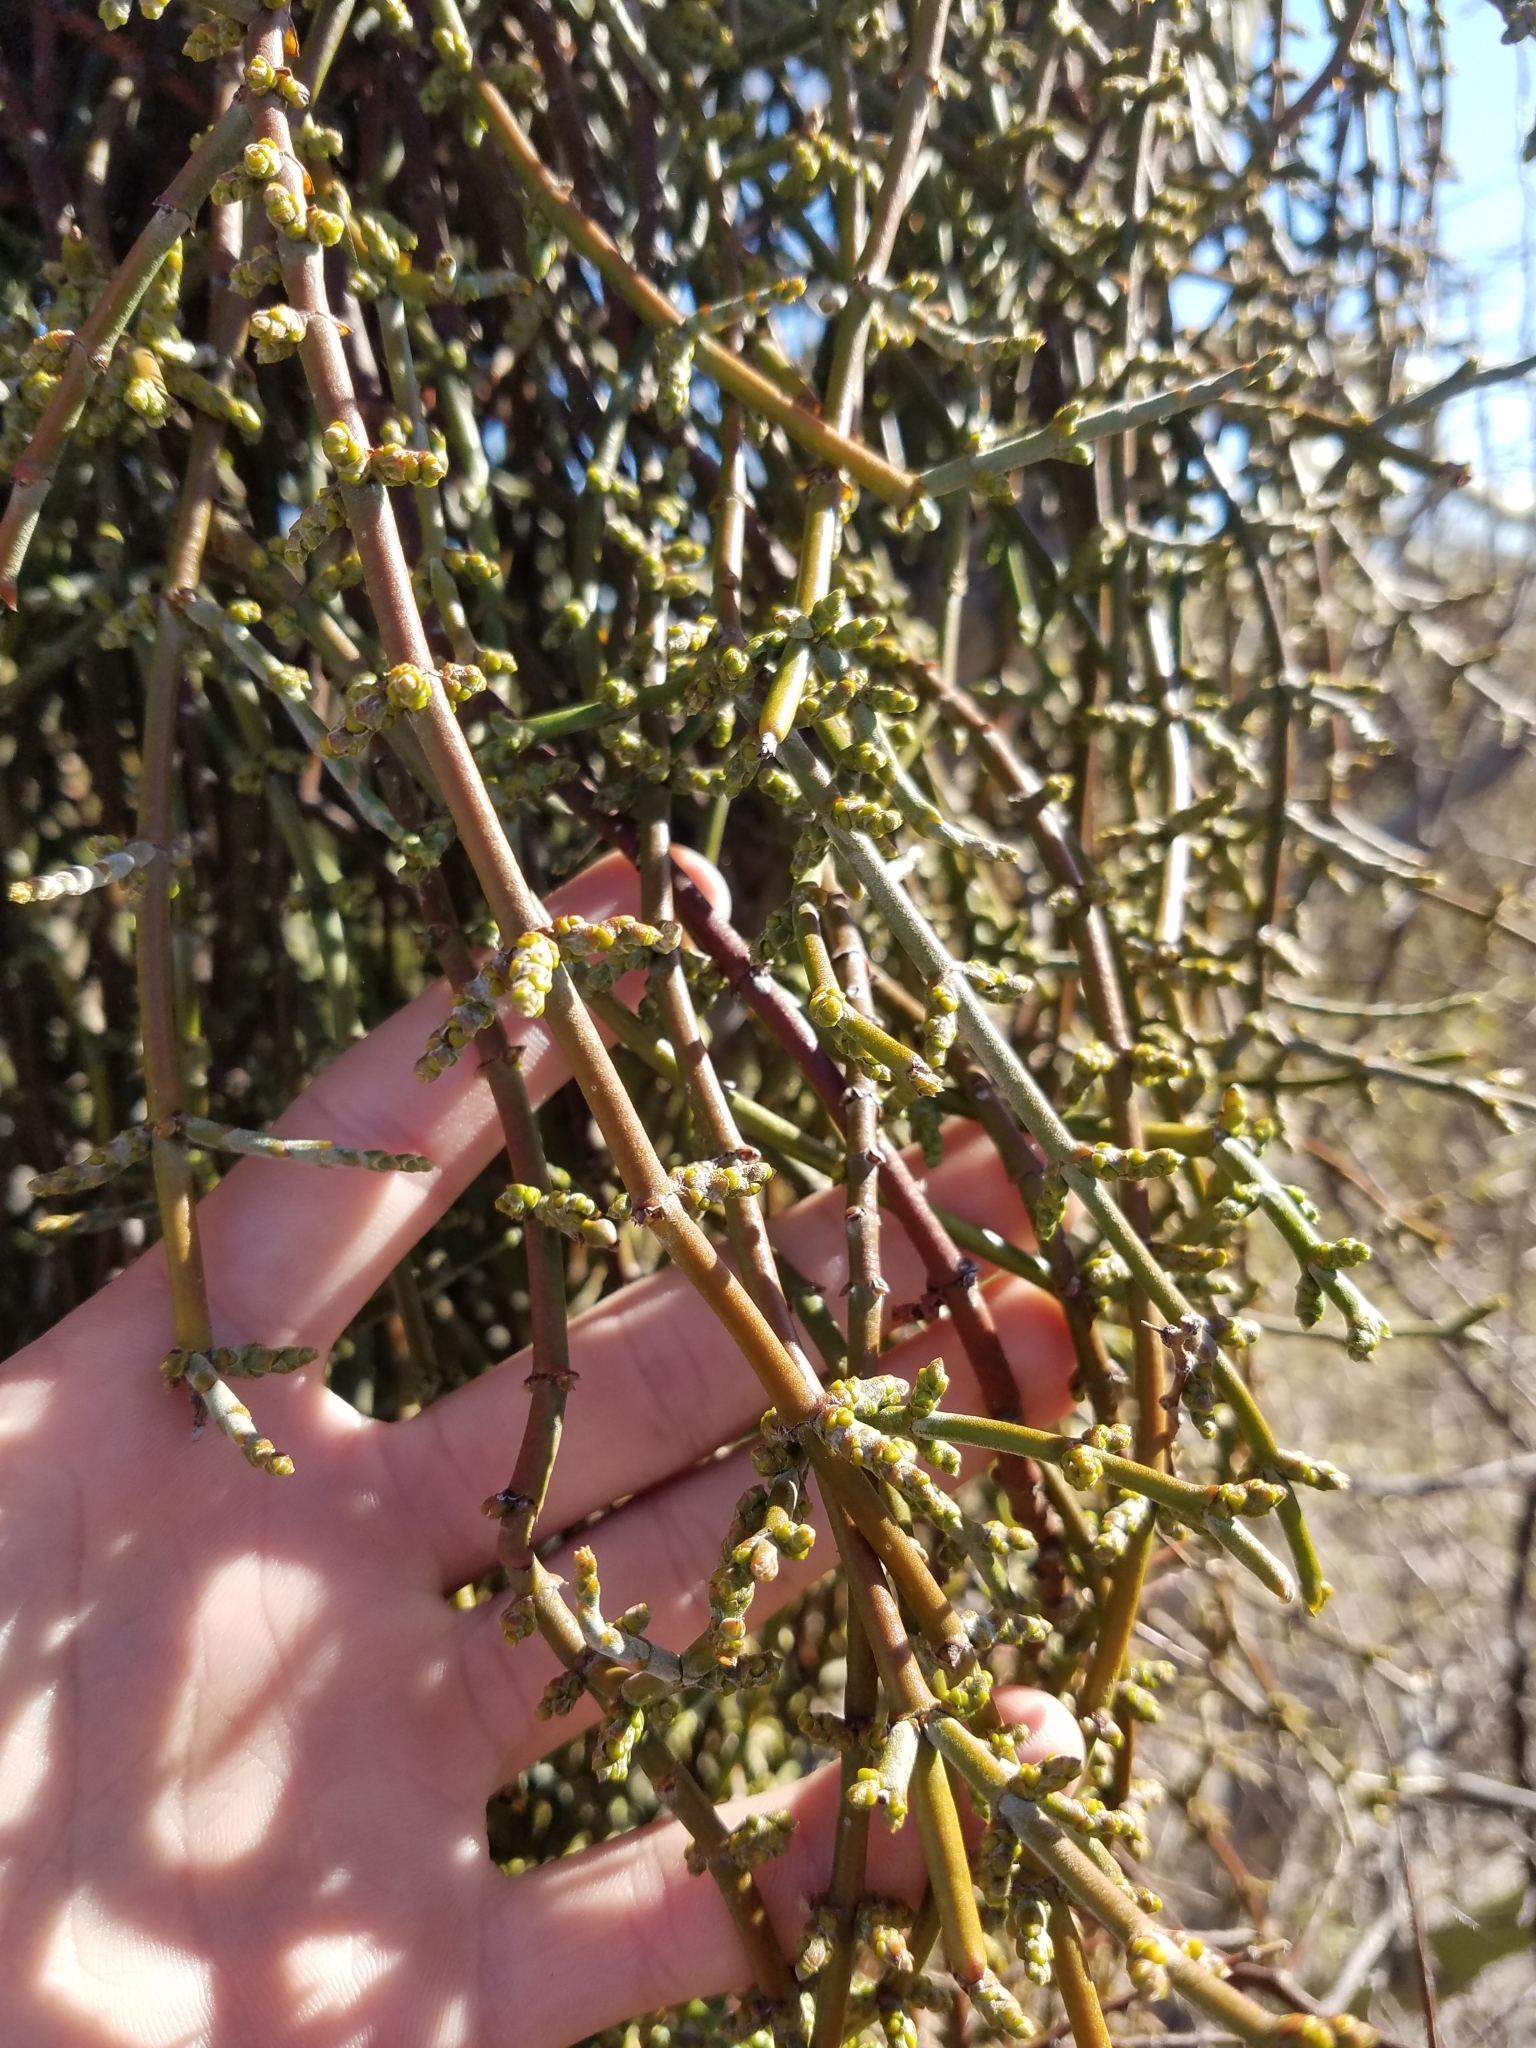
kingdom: Plantae
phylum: Tracheophyta
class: Magnoliopsida
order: Santalales
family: Viscaceae
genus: Phoradendron
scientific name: Phoradendron californicum
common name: Acacia mistletoe
